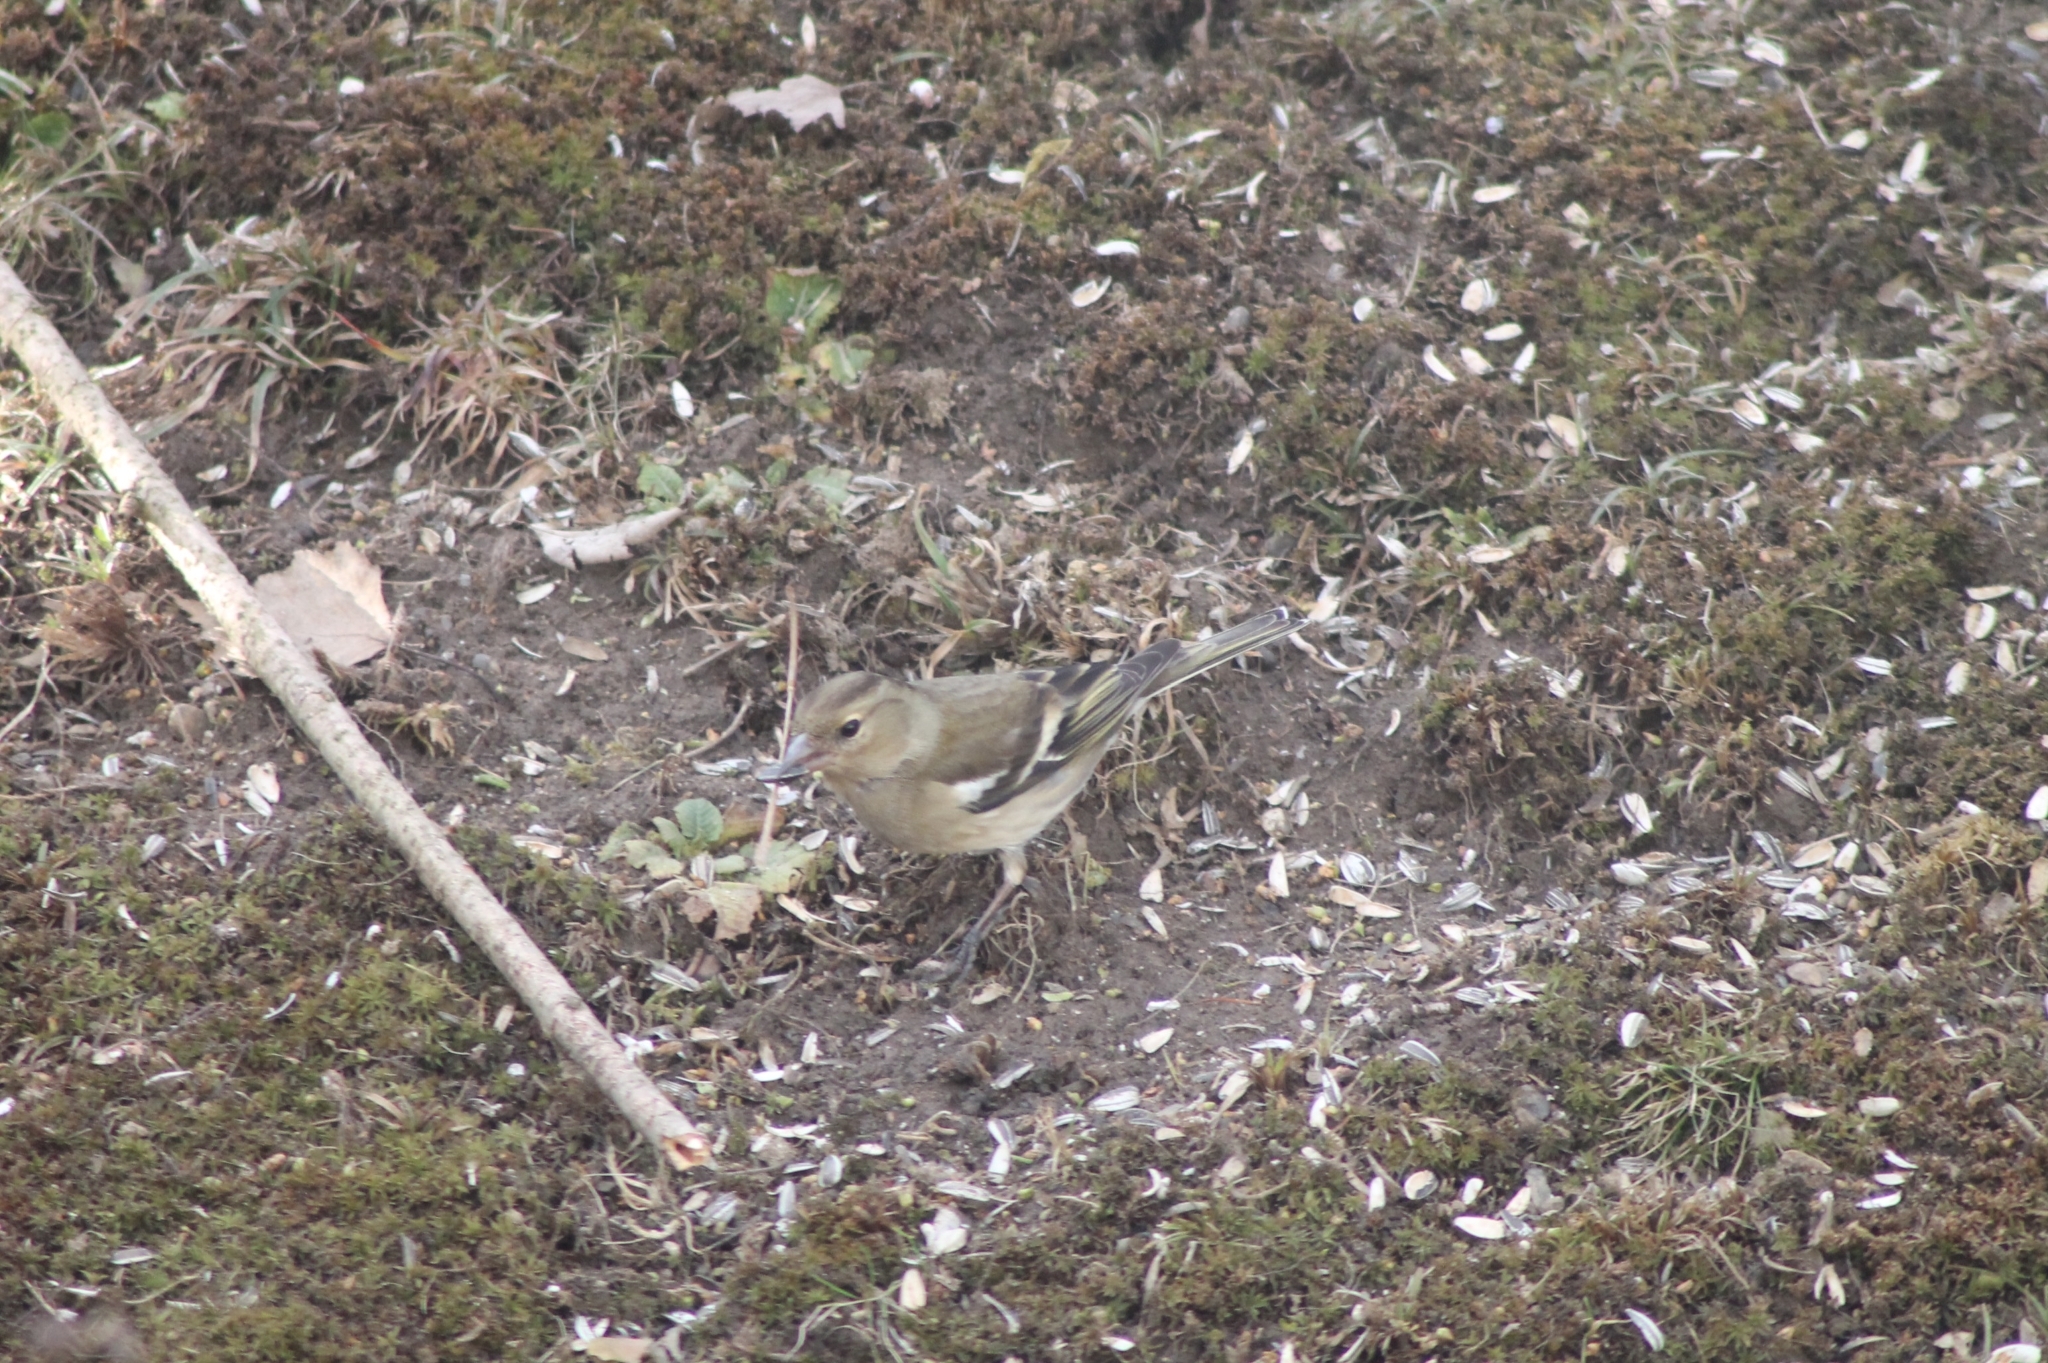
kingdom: Animalia
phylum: Chordata
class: Aves
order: Passeriformes
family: Fringillidae
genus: Fringilla
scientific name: Fringilla coelebs
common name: Common chaffinch
